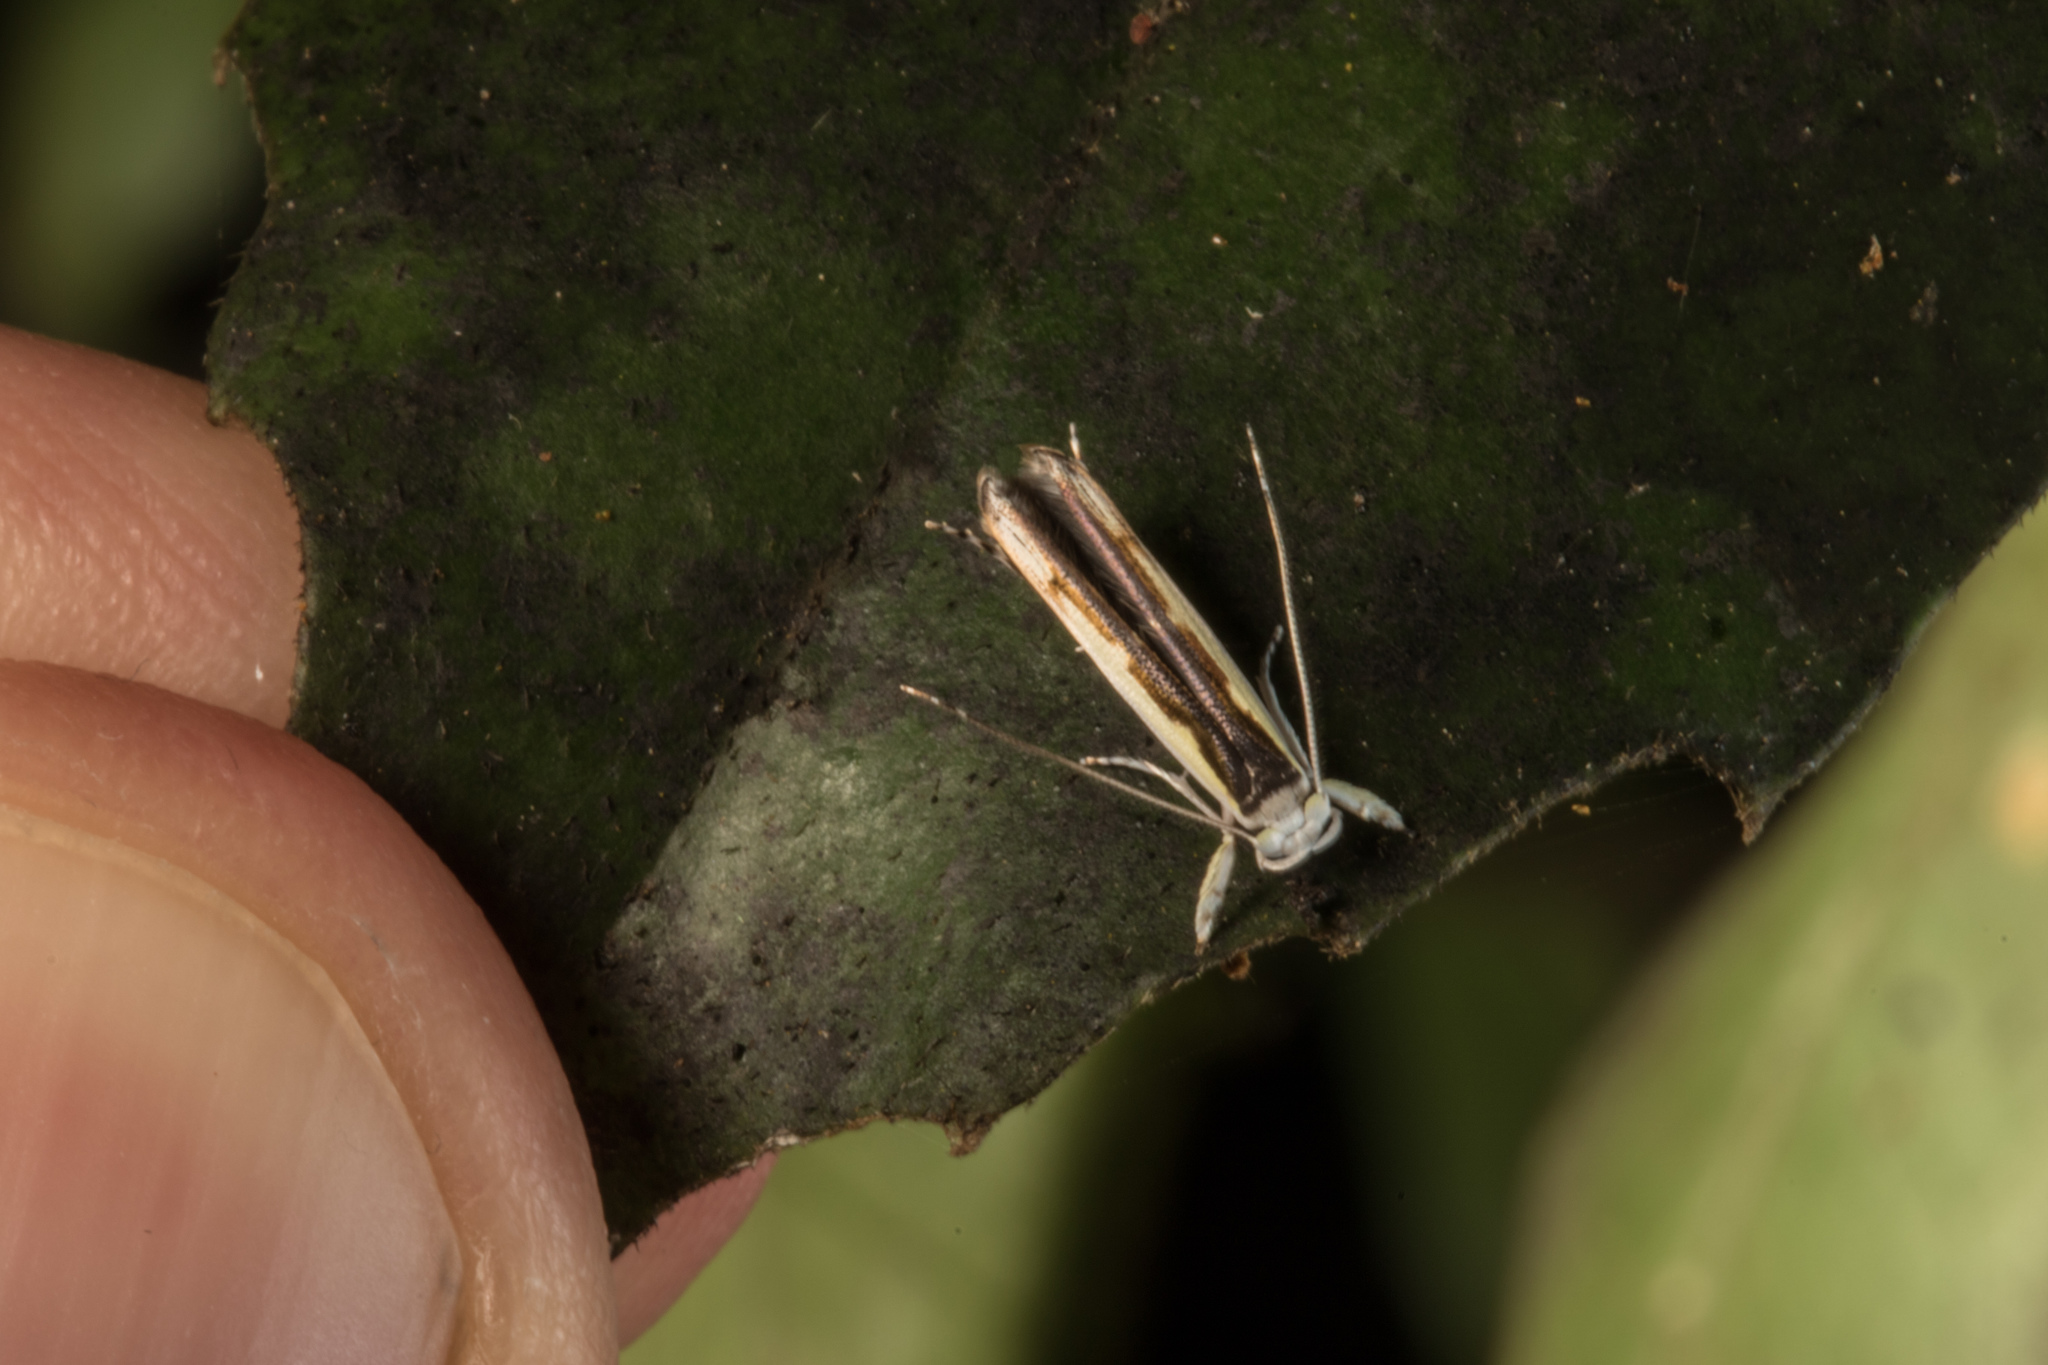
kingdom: Animalia
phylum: Arthropoda
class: Insecta
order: Lepidoptera
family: Roeslerstammiidae
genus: Vanicela
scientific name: Vanicela disjunctella
